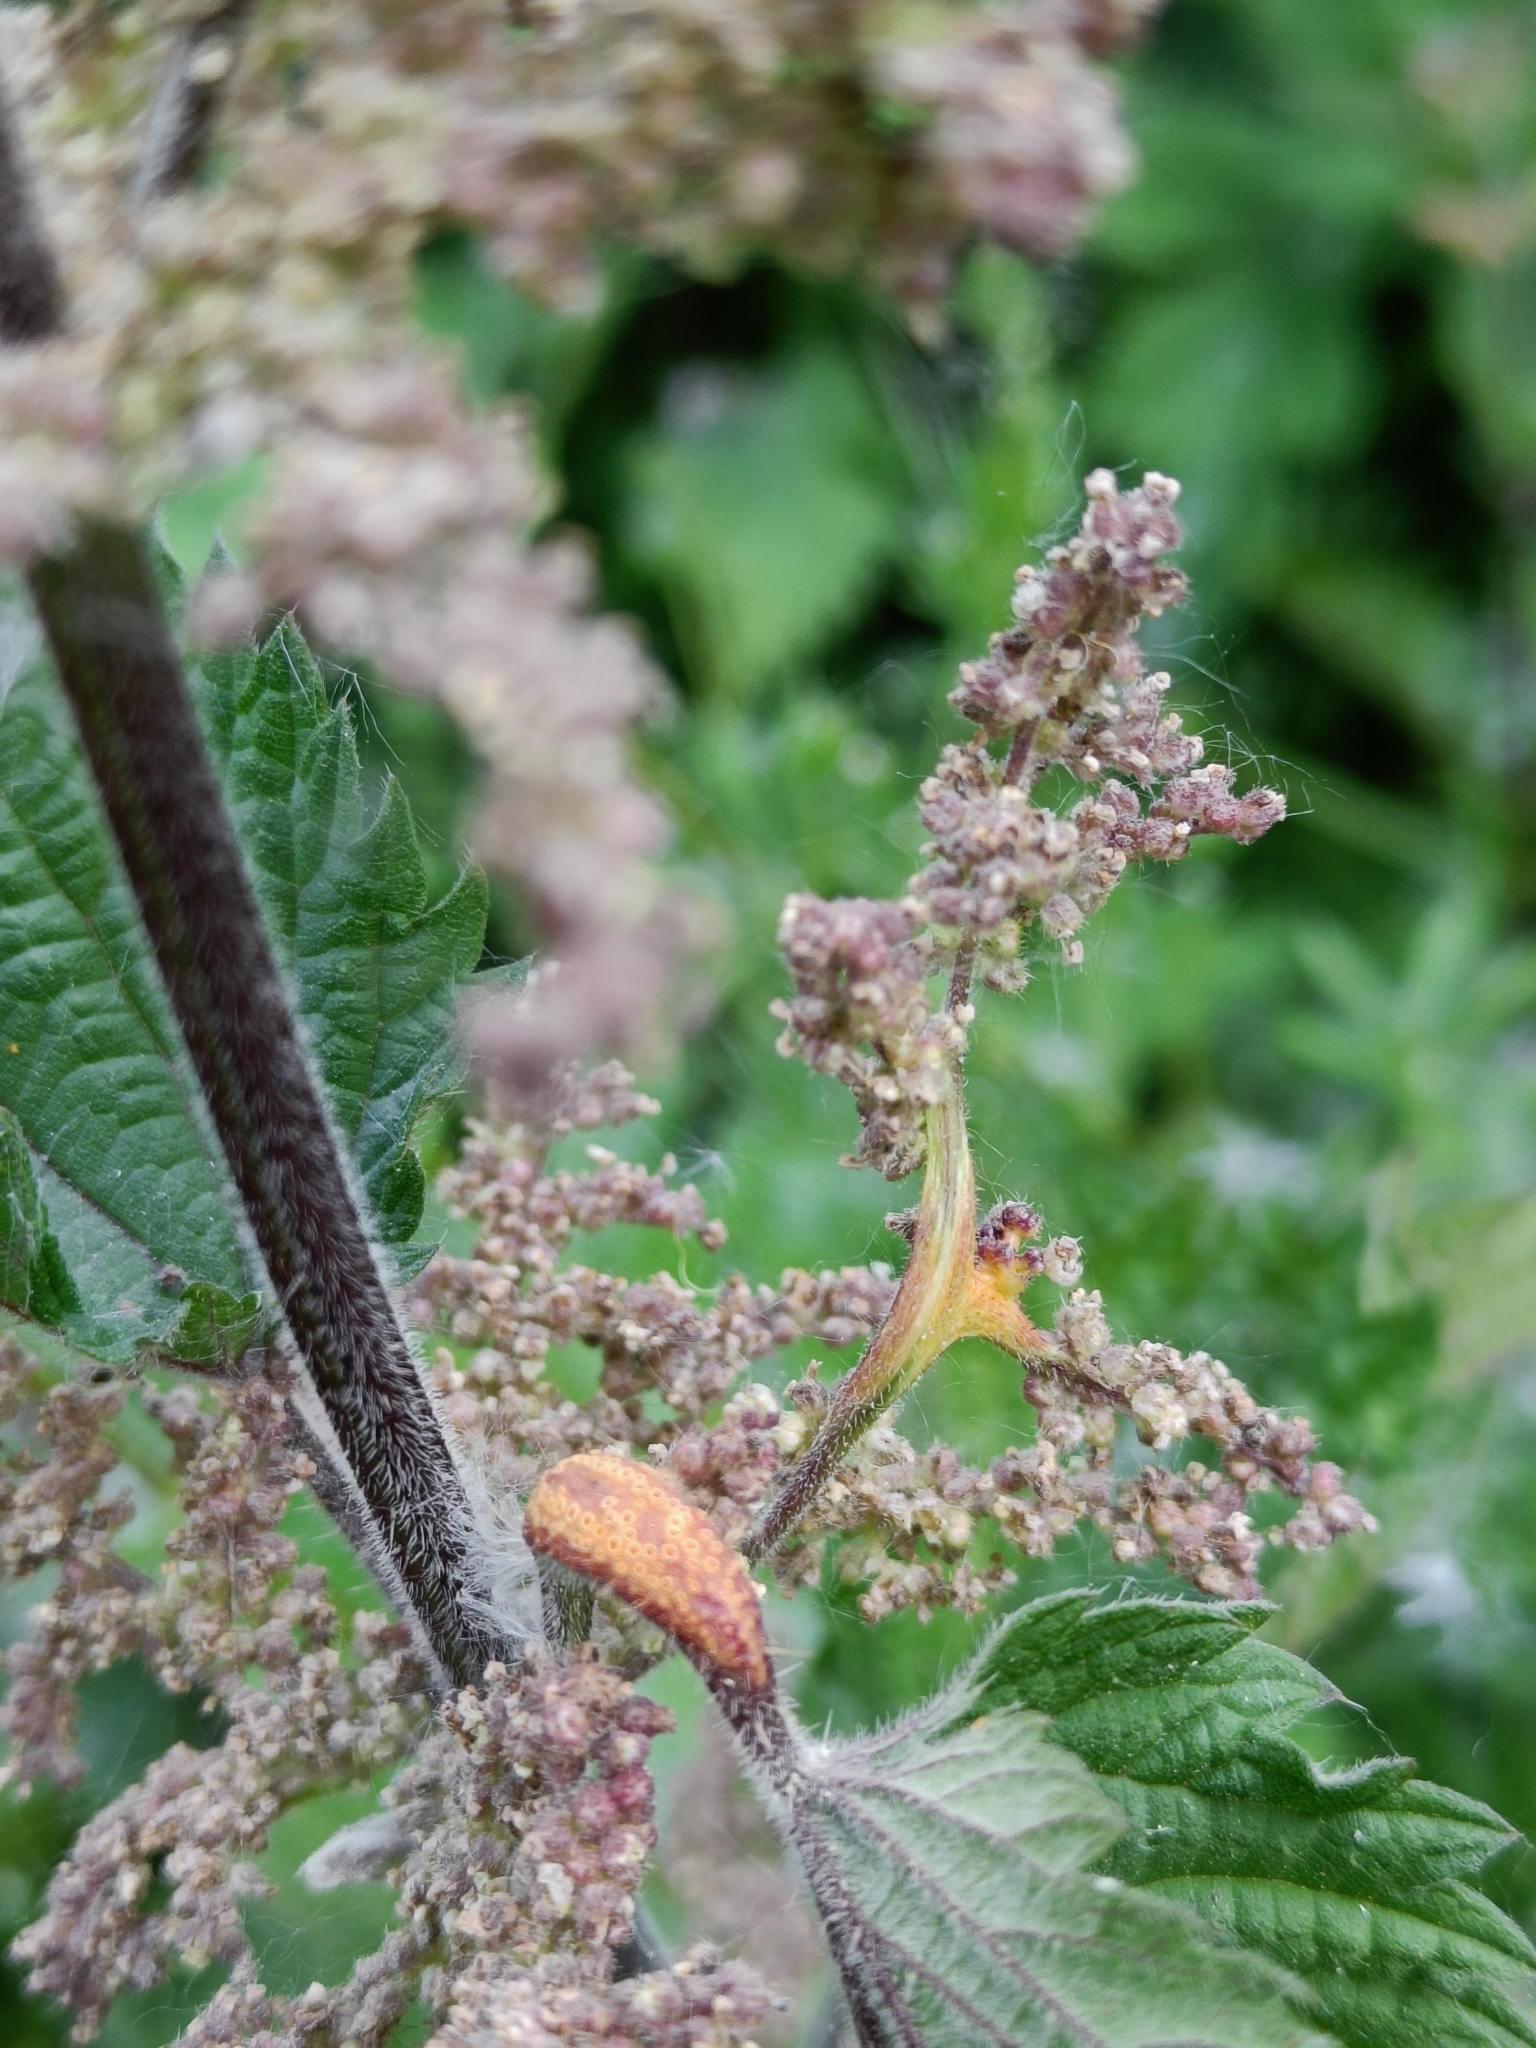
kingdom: Fungi
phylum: Basidiomycota
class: Pucciniomycetes
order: Pucciniales
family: Pucciniaceae
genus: Puccinia
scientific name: Puccinia urticata
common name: Nettle clustercup rust fungus
